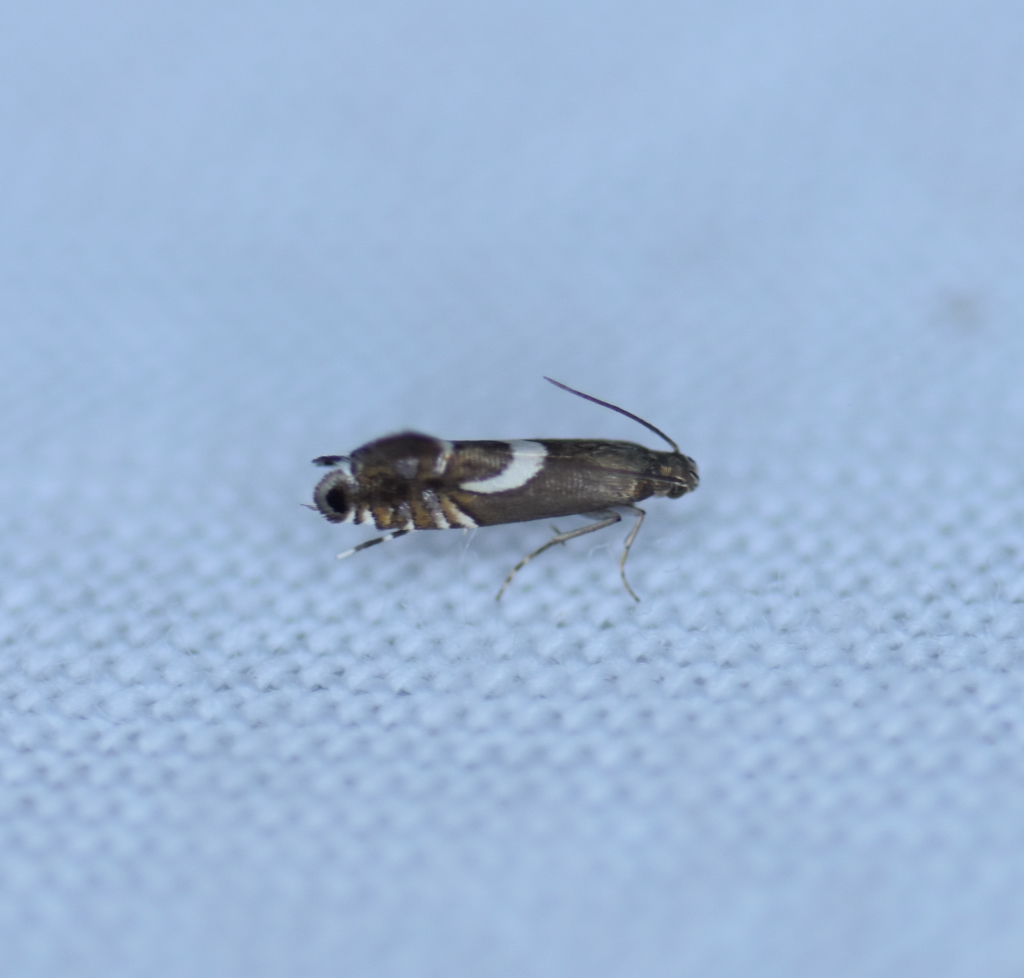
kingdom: Animalia
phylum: Arthropoda
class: Insecta
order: Lepidoptera
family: Glyphipterigidae
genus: Glyphipterix
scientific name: Glyphipterix Diploschizia impigritella
